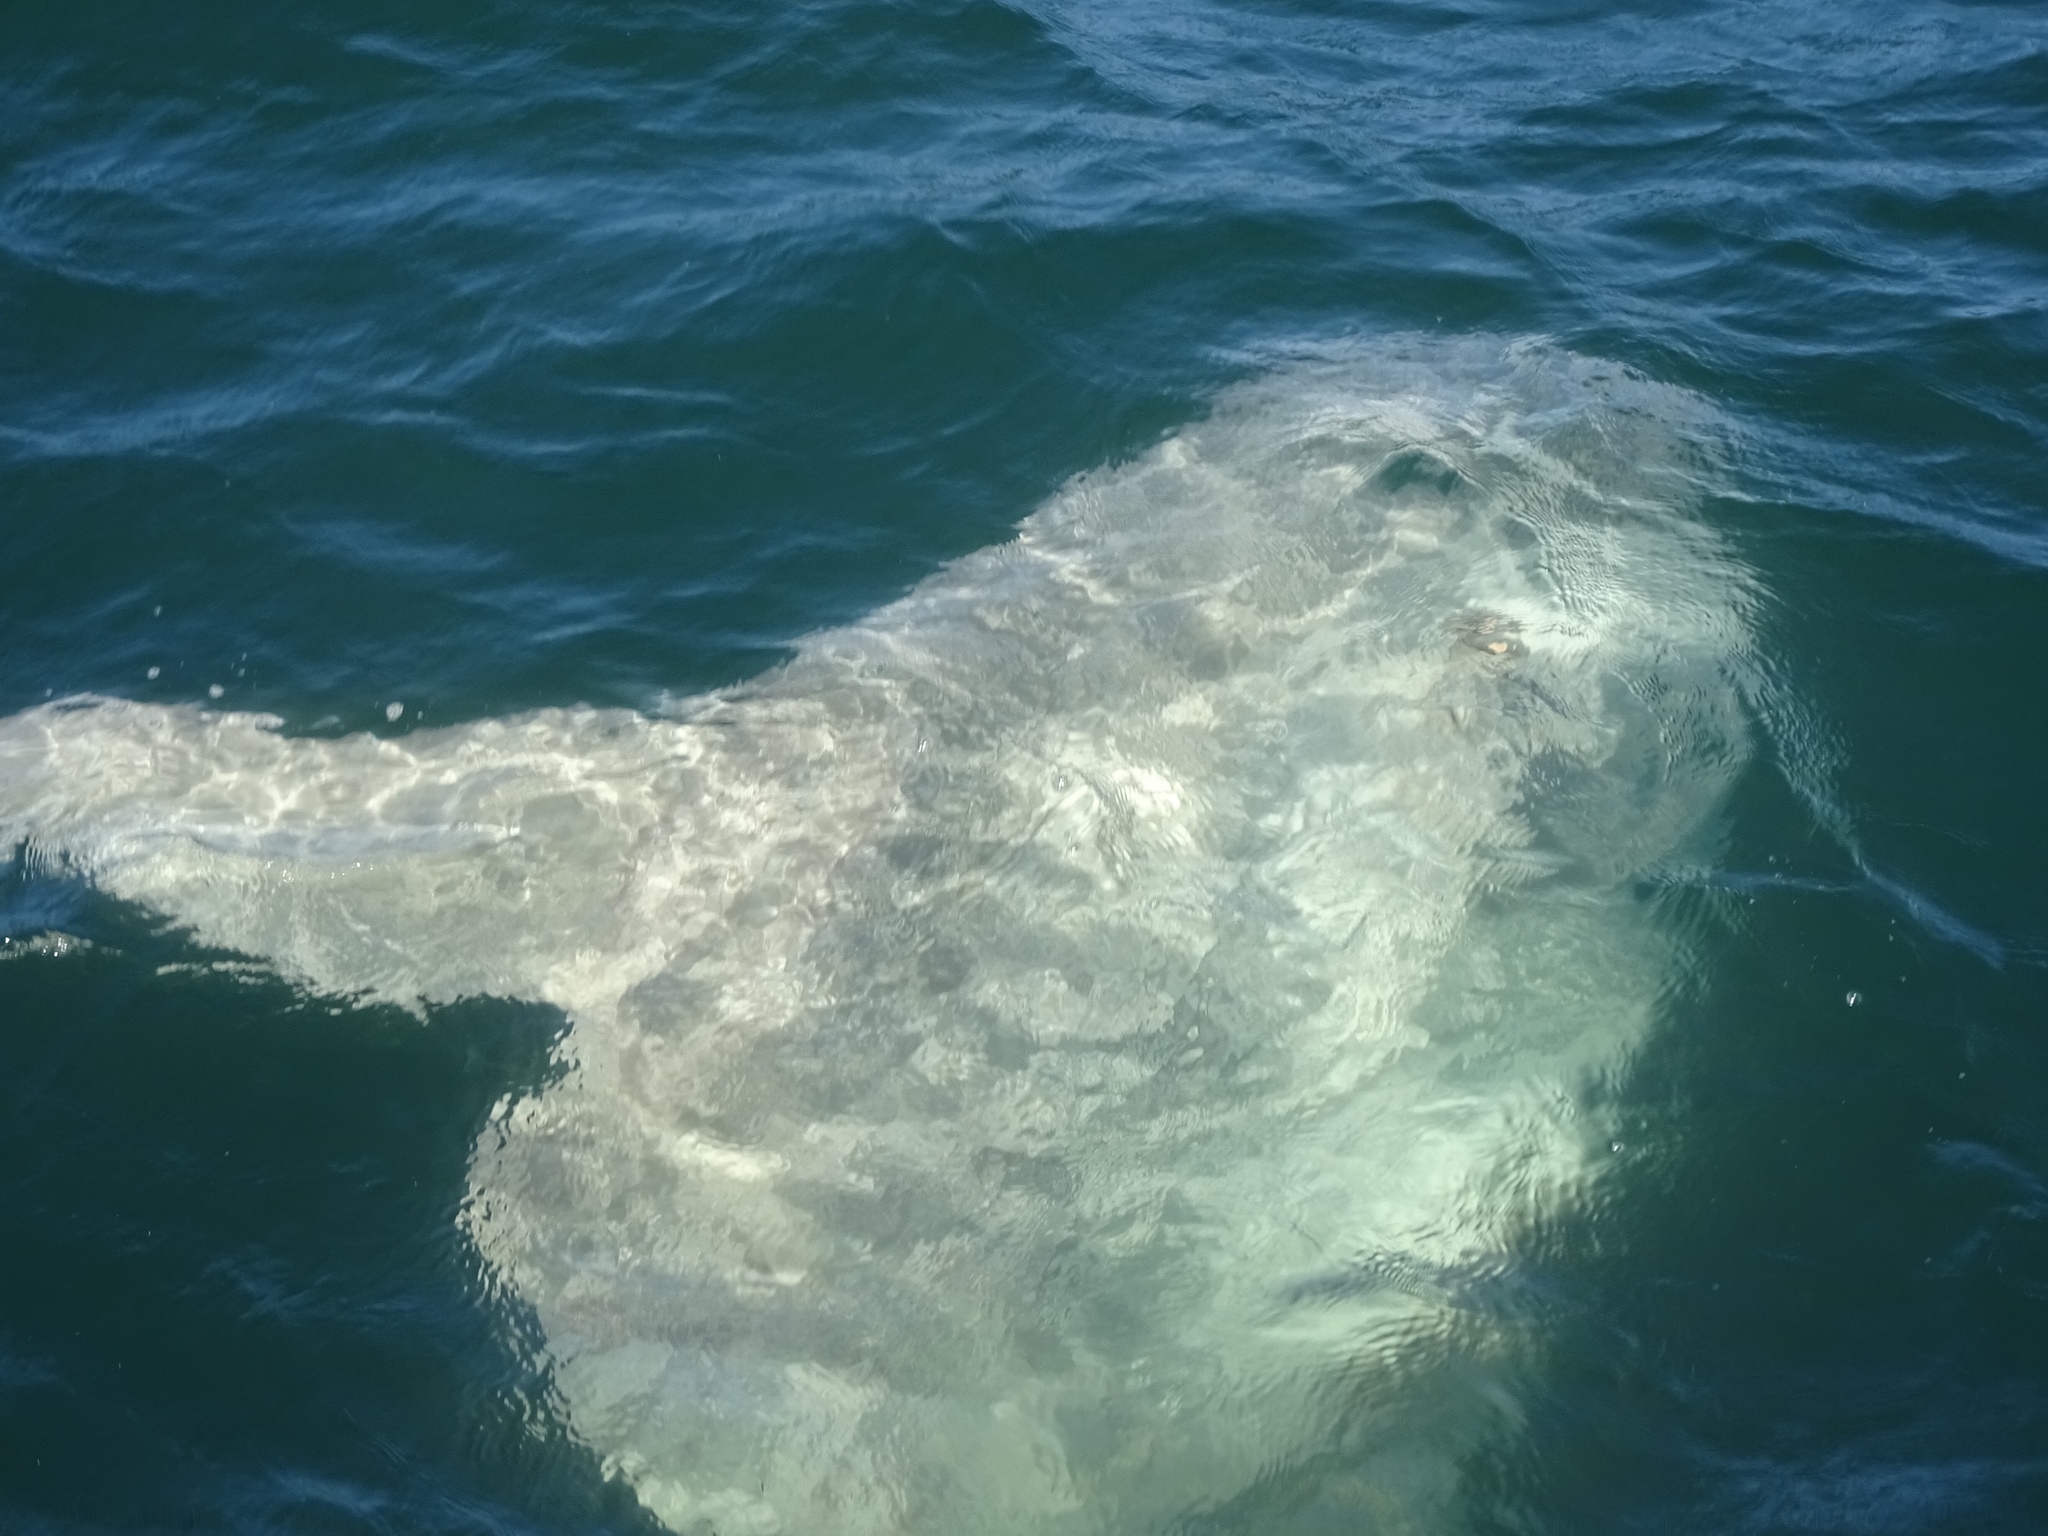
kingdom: Animalia
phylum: Chordata
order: Tetraodontiformes
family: Molidae
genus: Mola
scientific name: Mola mola
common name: Ocean sunfish
